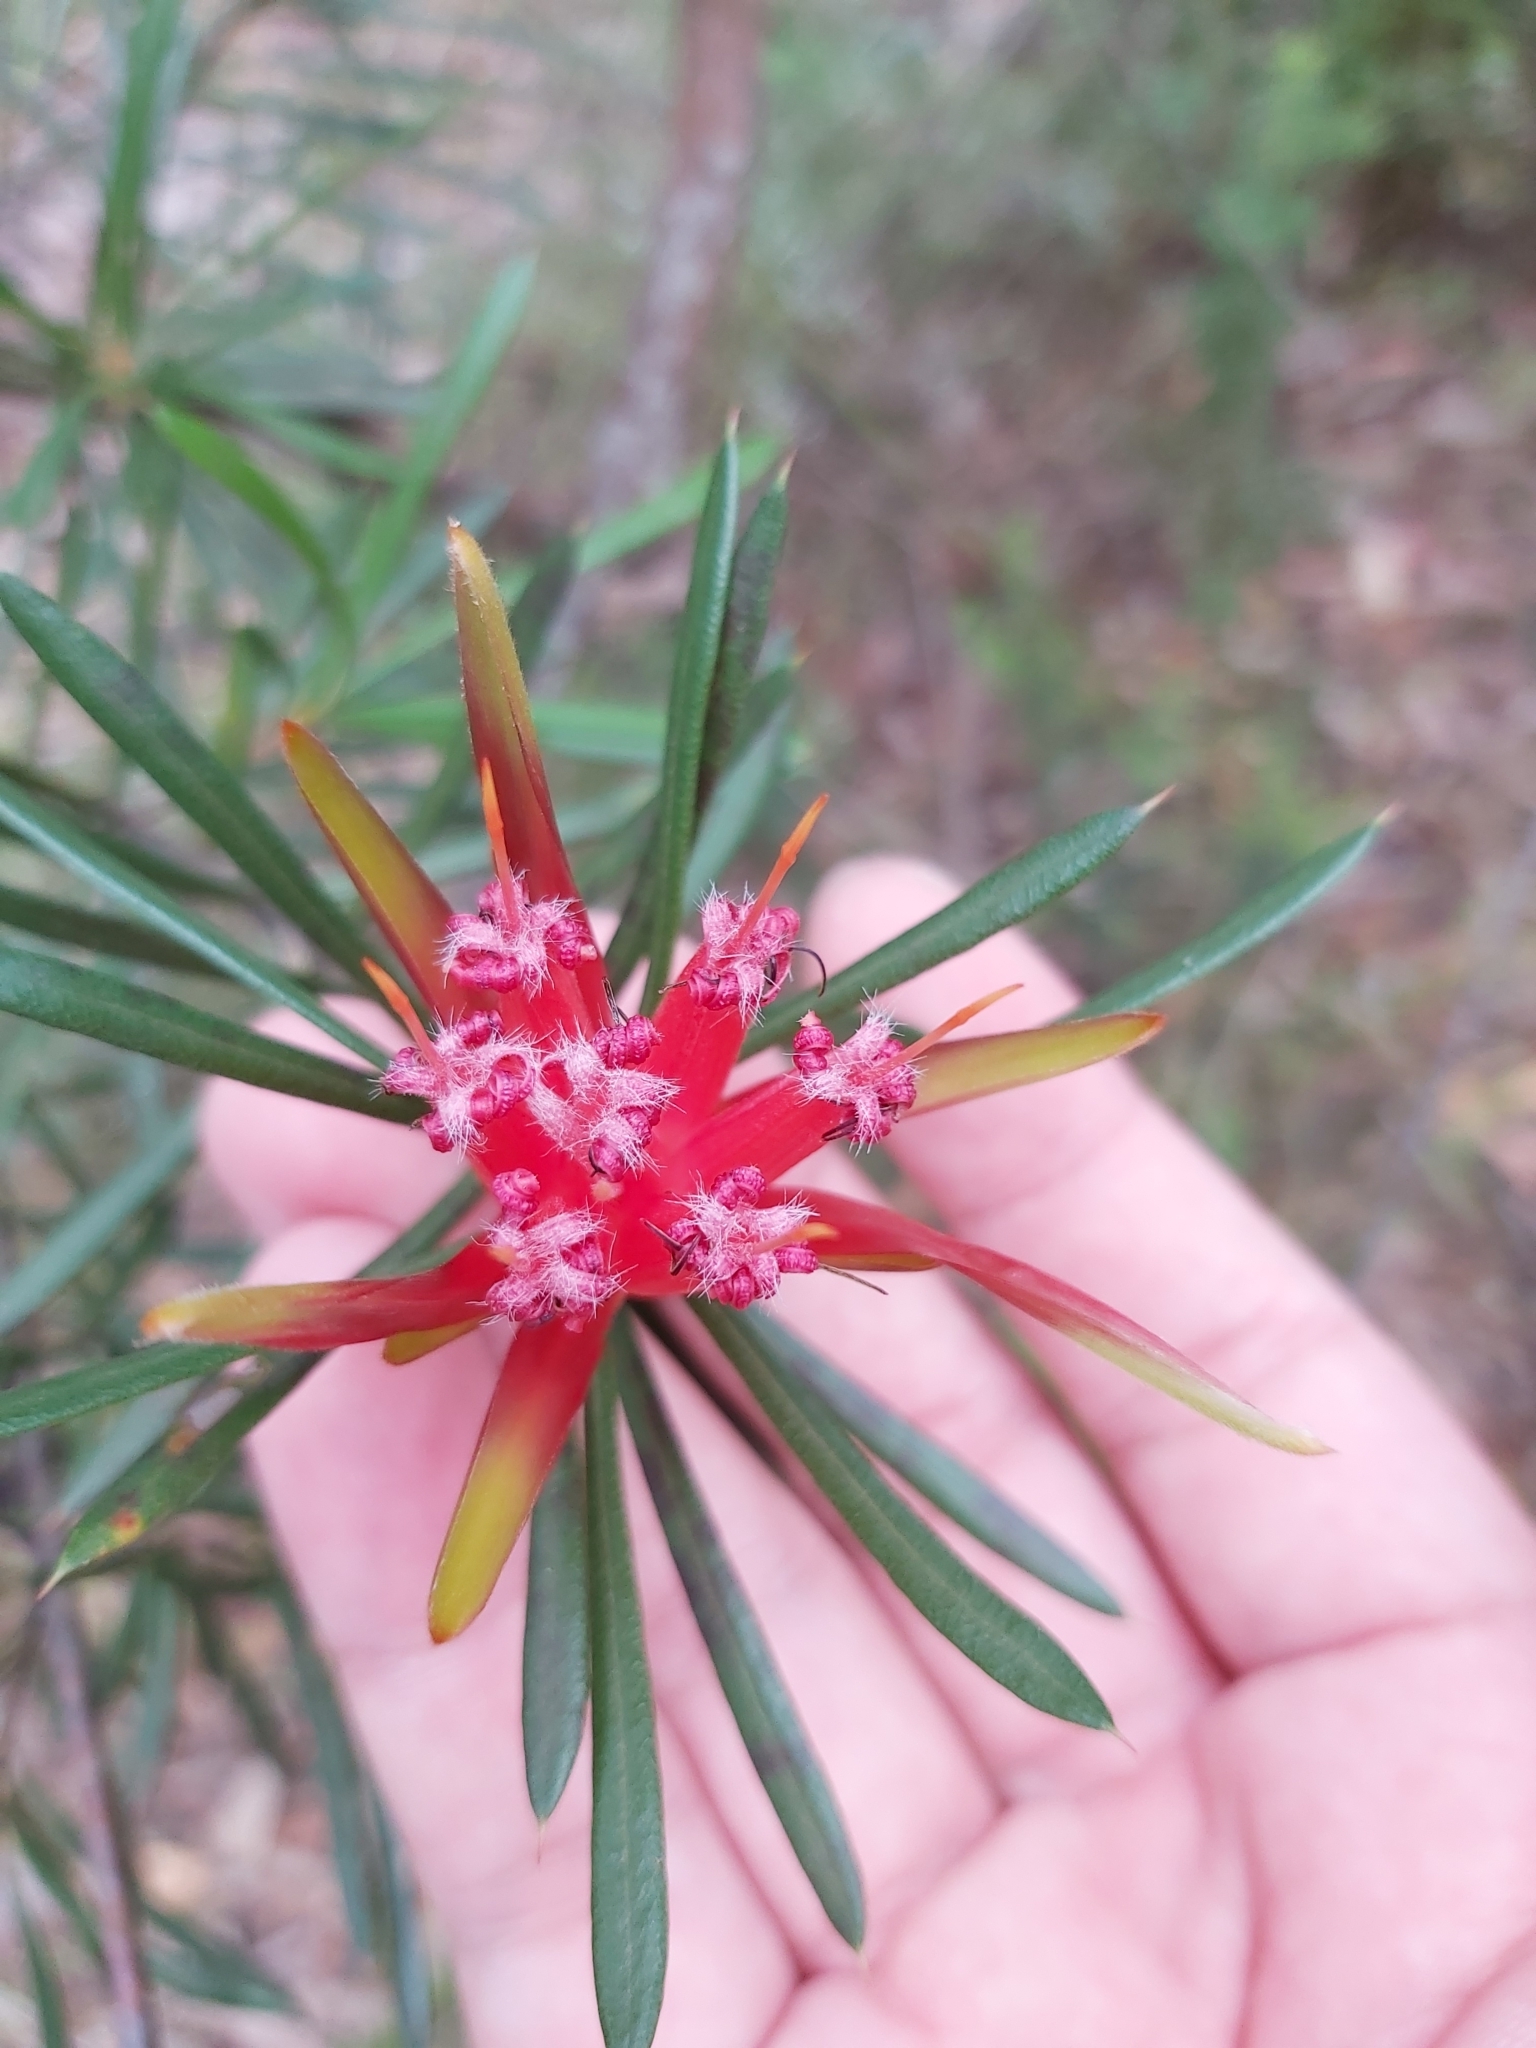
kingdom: Plantae
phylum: Tracheophyta
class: Magnoliopsida
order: Proteales
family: Proteaceae
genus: Lambertia
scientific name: Lambertia formosa
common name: Mountain-devil
